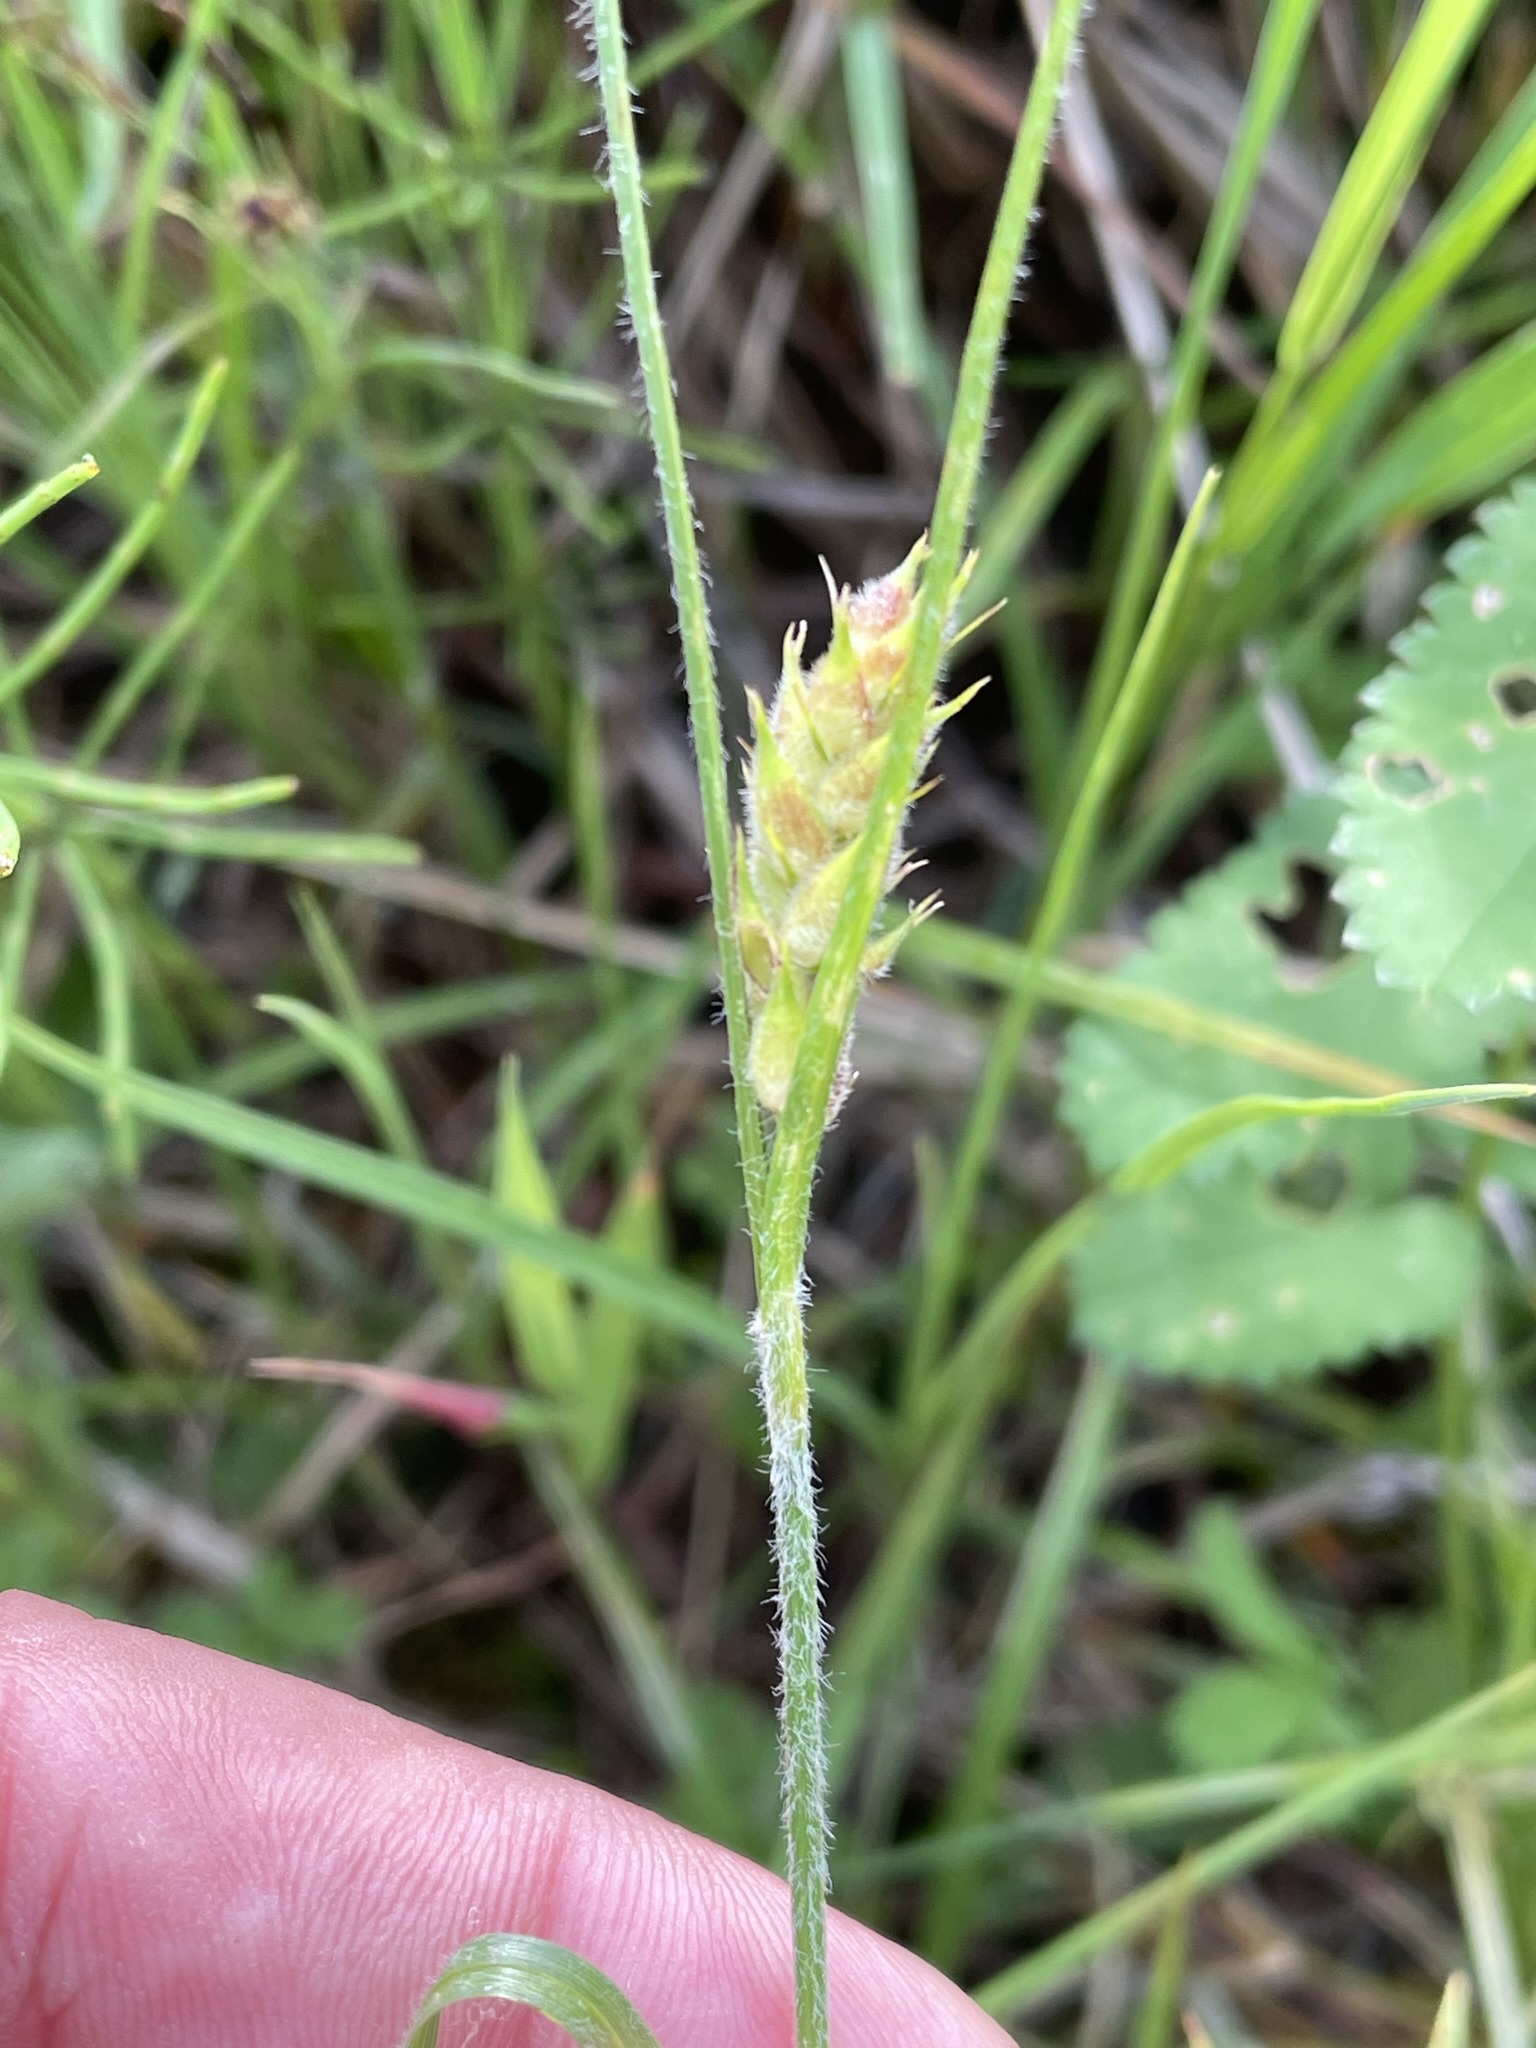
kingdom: Plantae
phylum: Tracheophyta
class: Liliopsida
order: Poales
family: Cyperaceae
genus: Carex
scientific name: Carex hirta
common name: Hairy sedge
